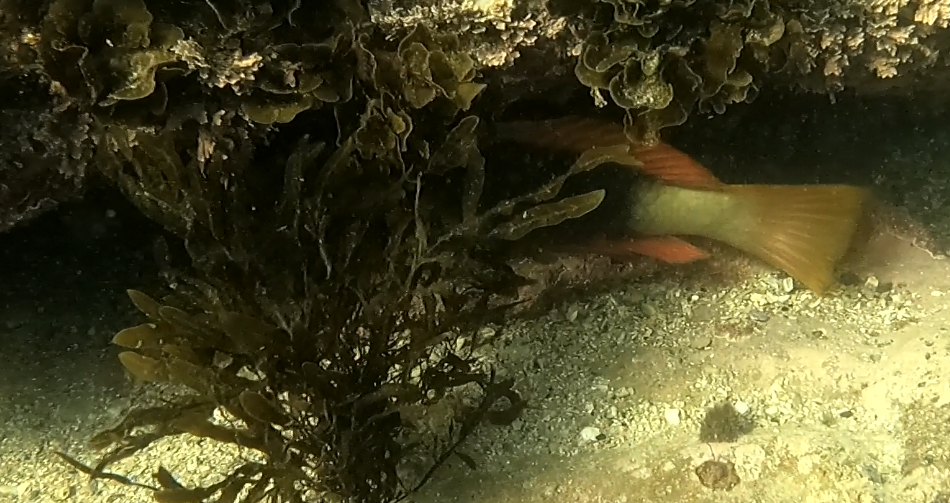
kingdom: Animalia
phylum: Chordata
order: Perciformes
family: Labridae
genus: Notolabrus
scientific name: Notolabrus gymnogenis
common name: Crimson banded wrasse
